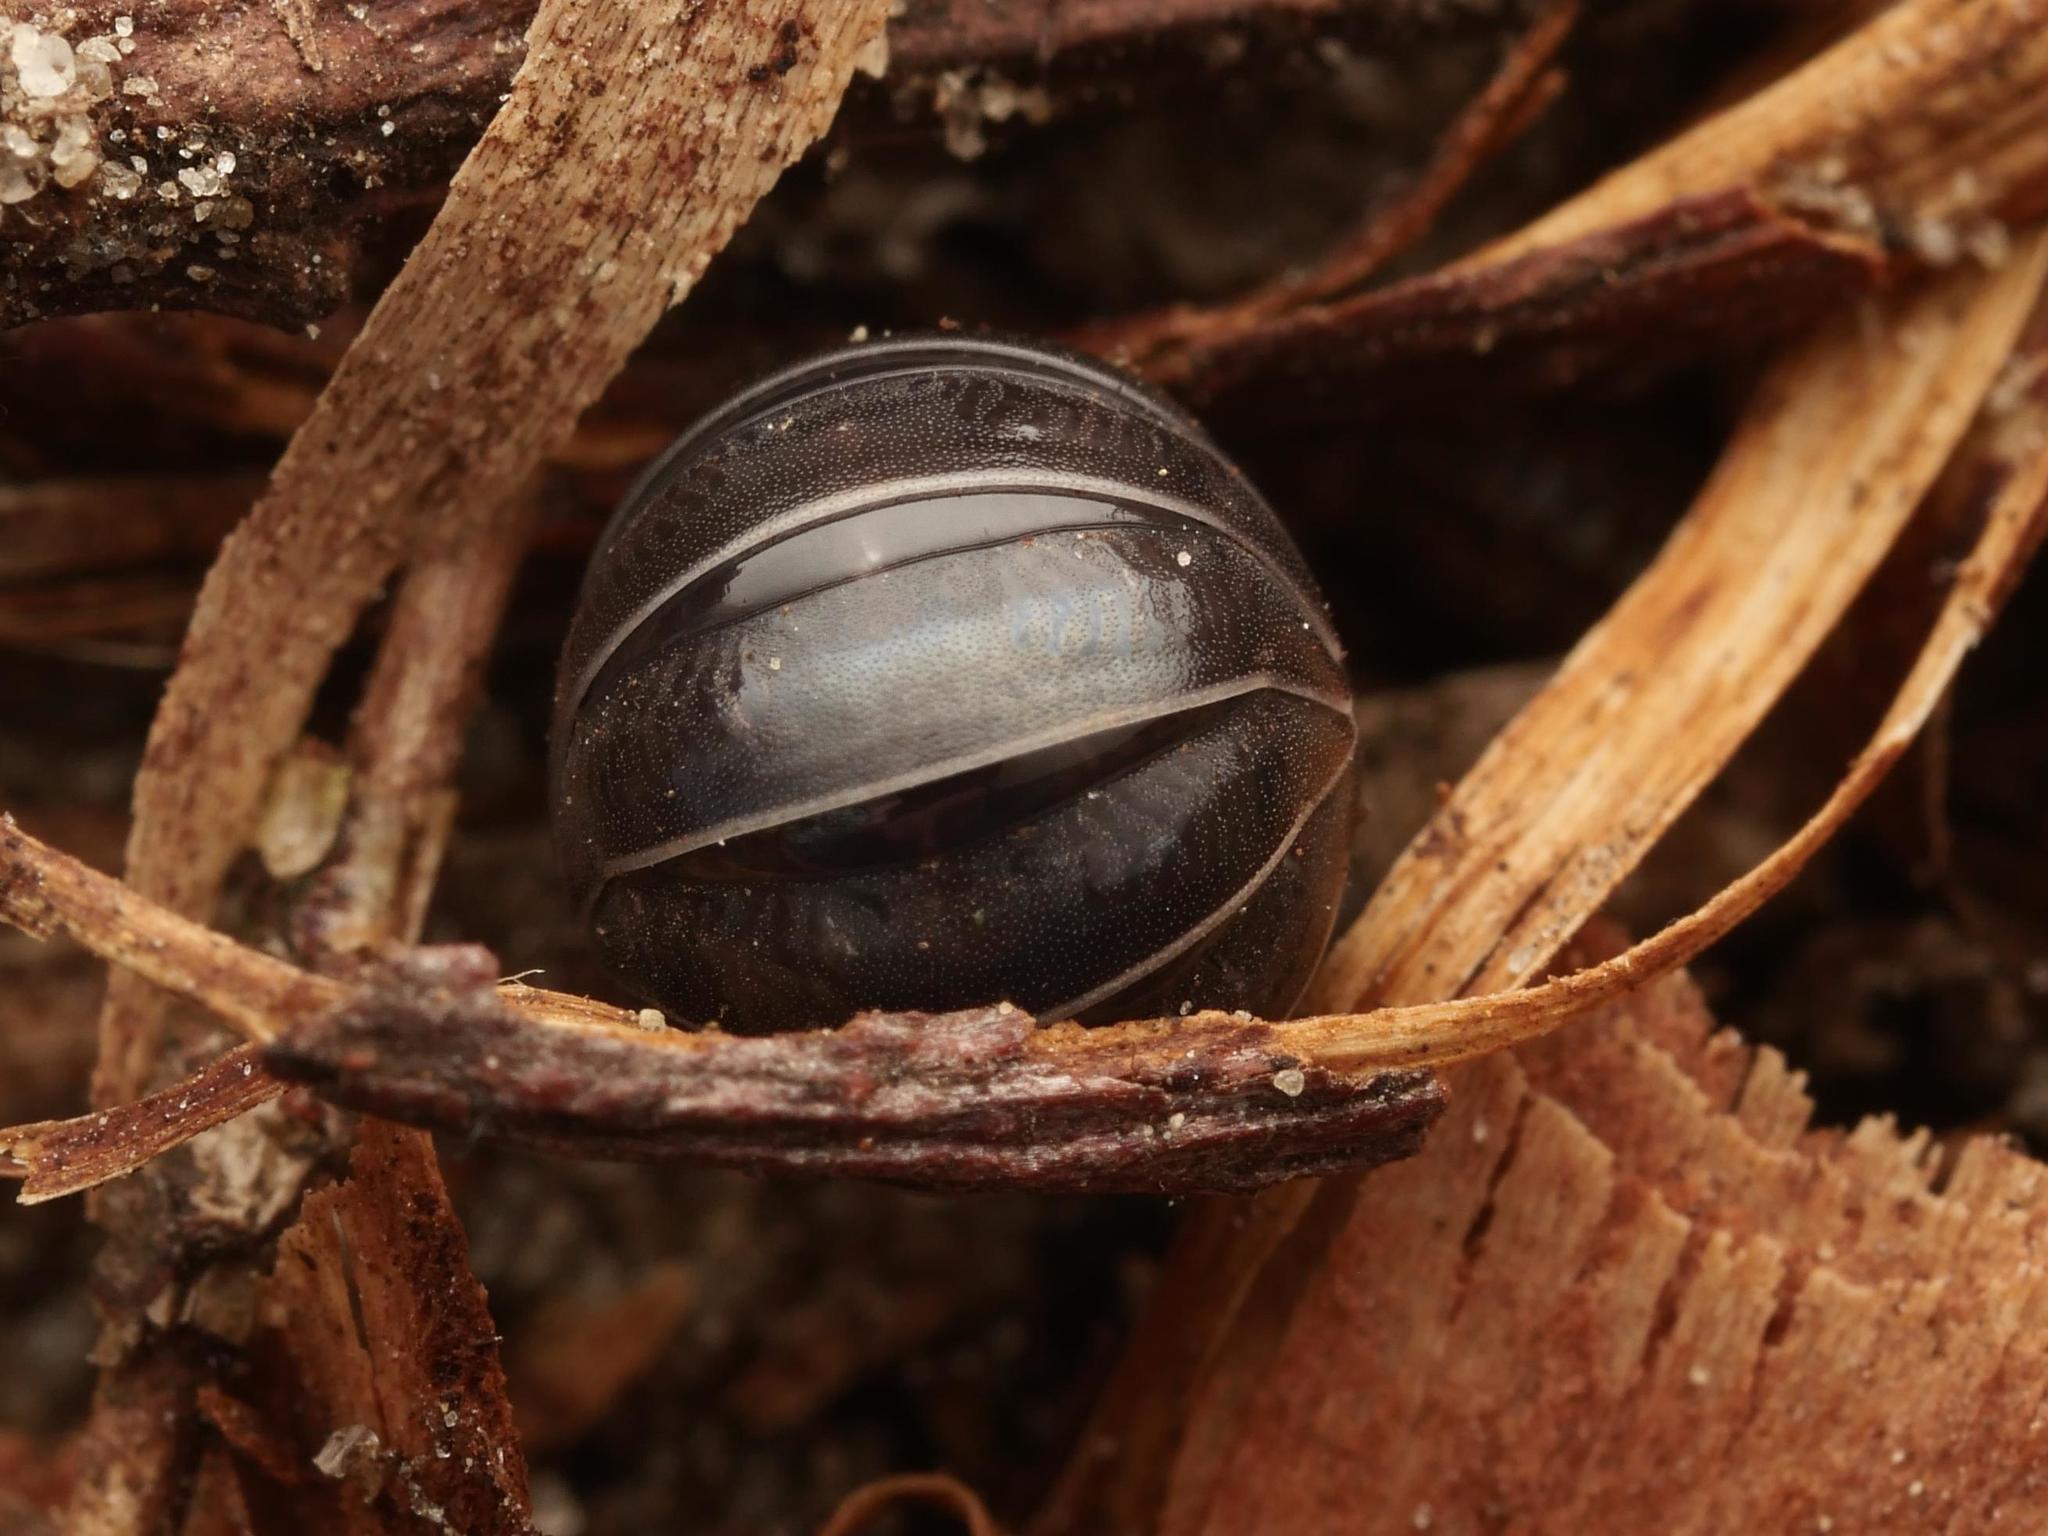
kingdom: Animalia
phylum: Arthropoda
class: Malacostraca
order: Isopoda
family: Armadillidiidae
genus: Armadillidium
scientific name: Armadillidium vulgare
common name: Common pill woodlouse
